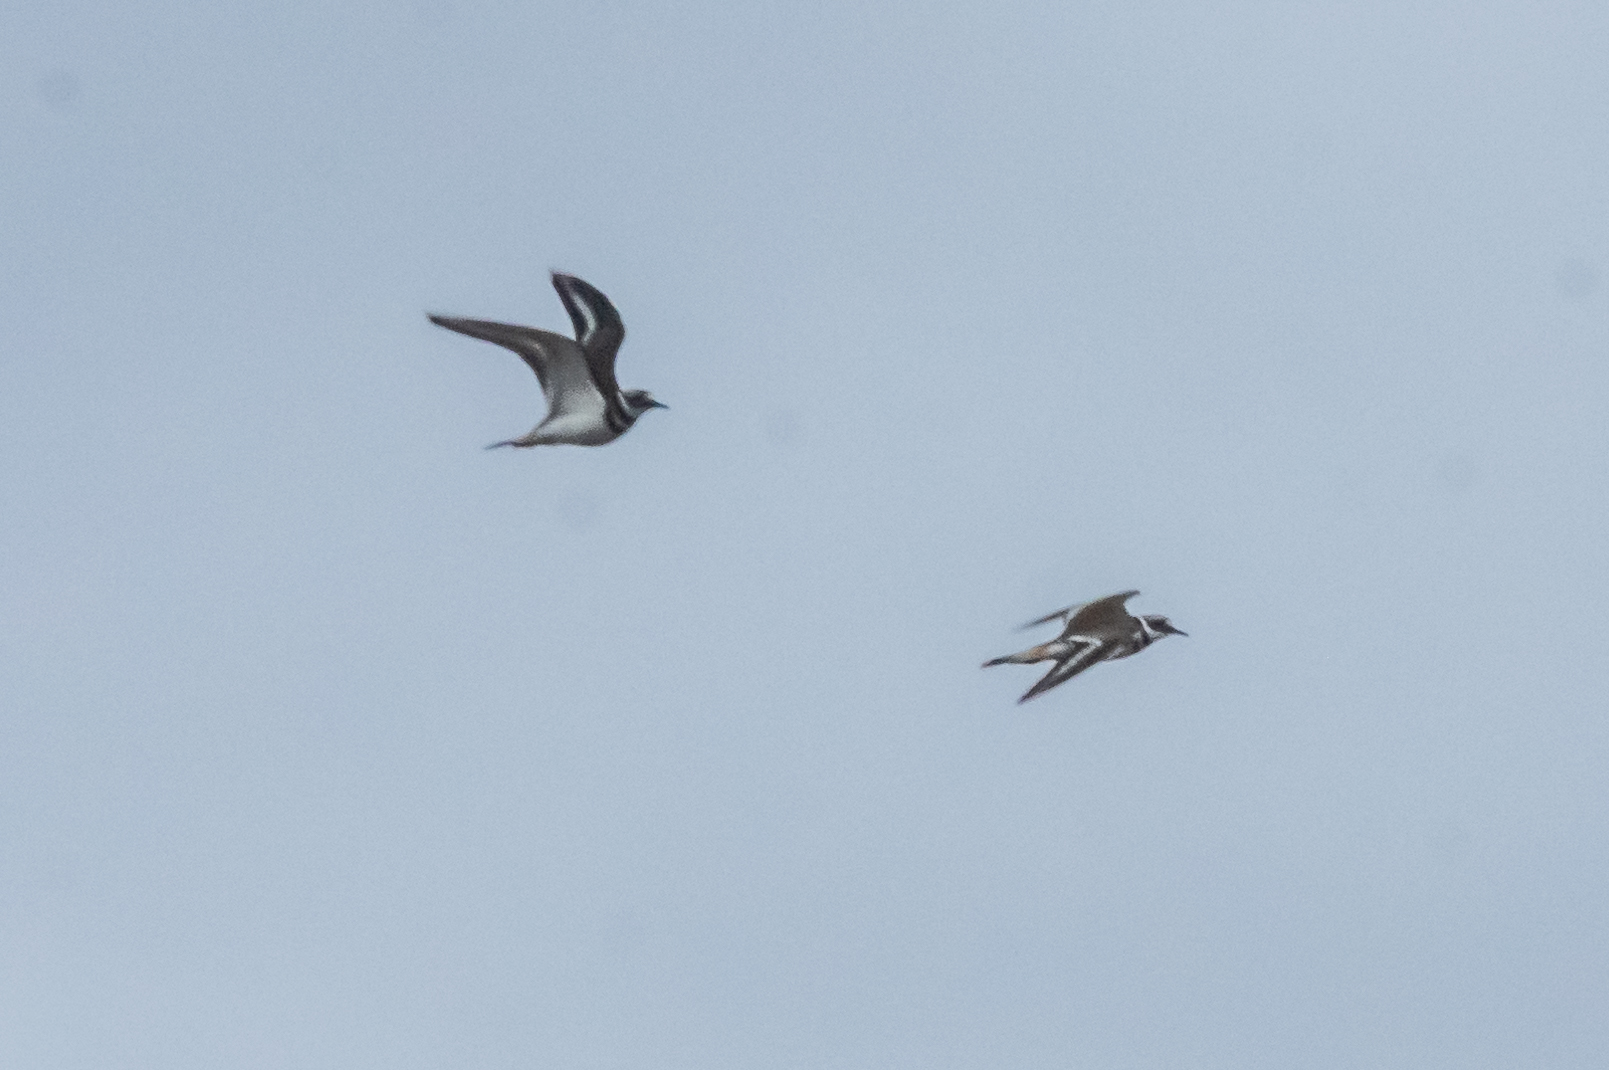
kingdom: Animalia
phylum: Chordata
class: Aves
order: Charadriiformes
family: Charadriidae
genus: Charadrius
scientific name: Charadrius vociferus
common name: Killdeer
